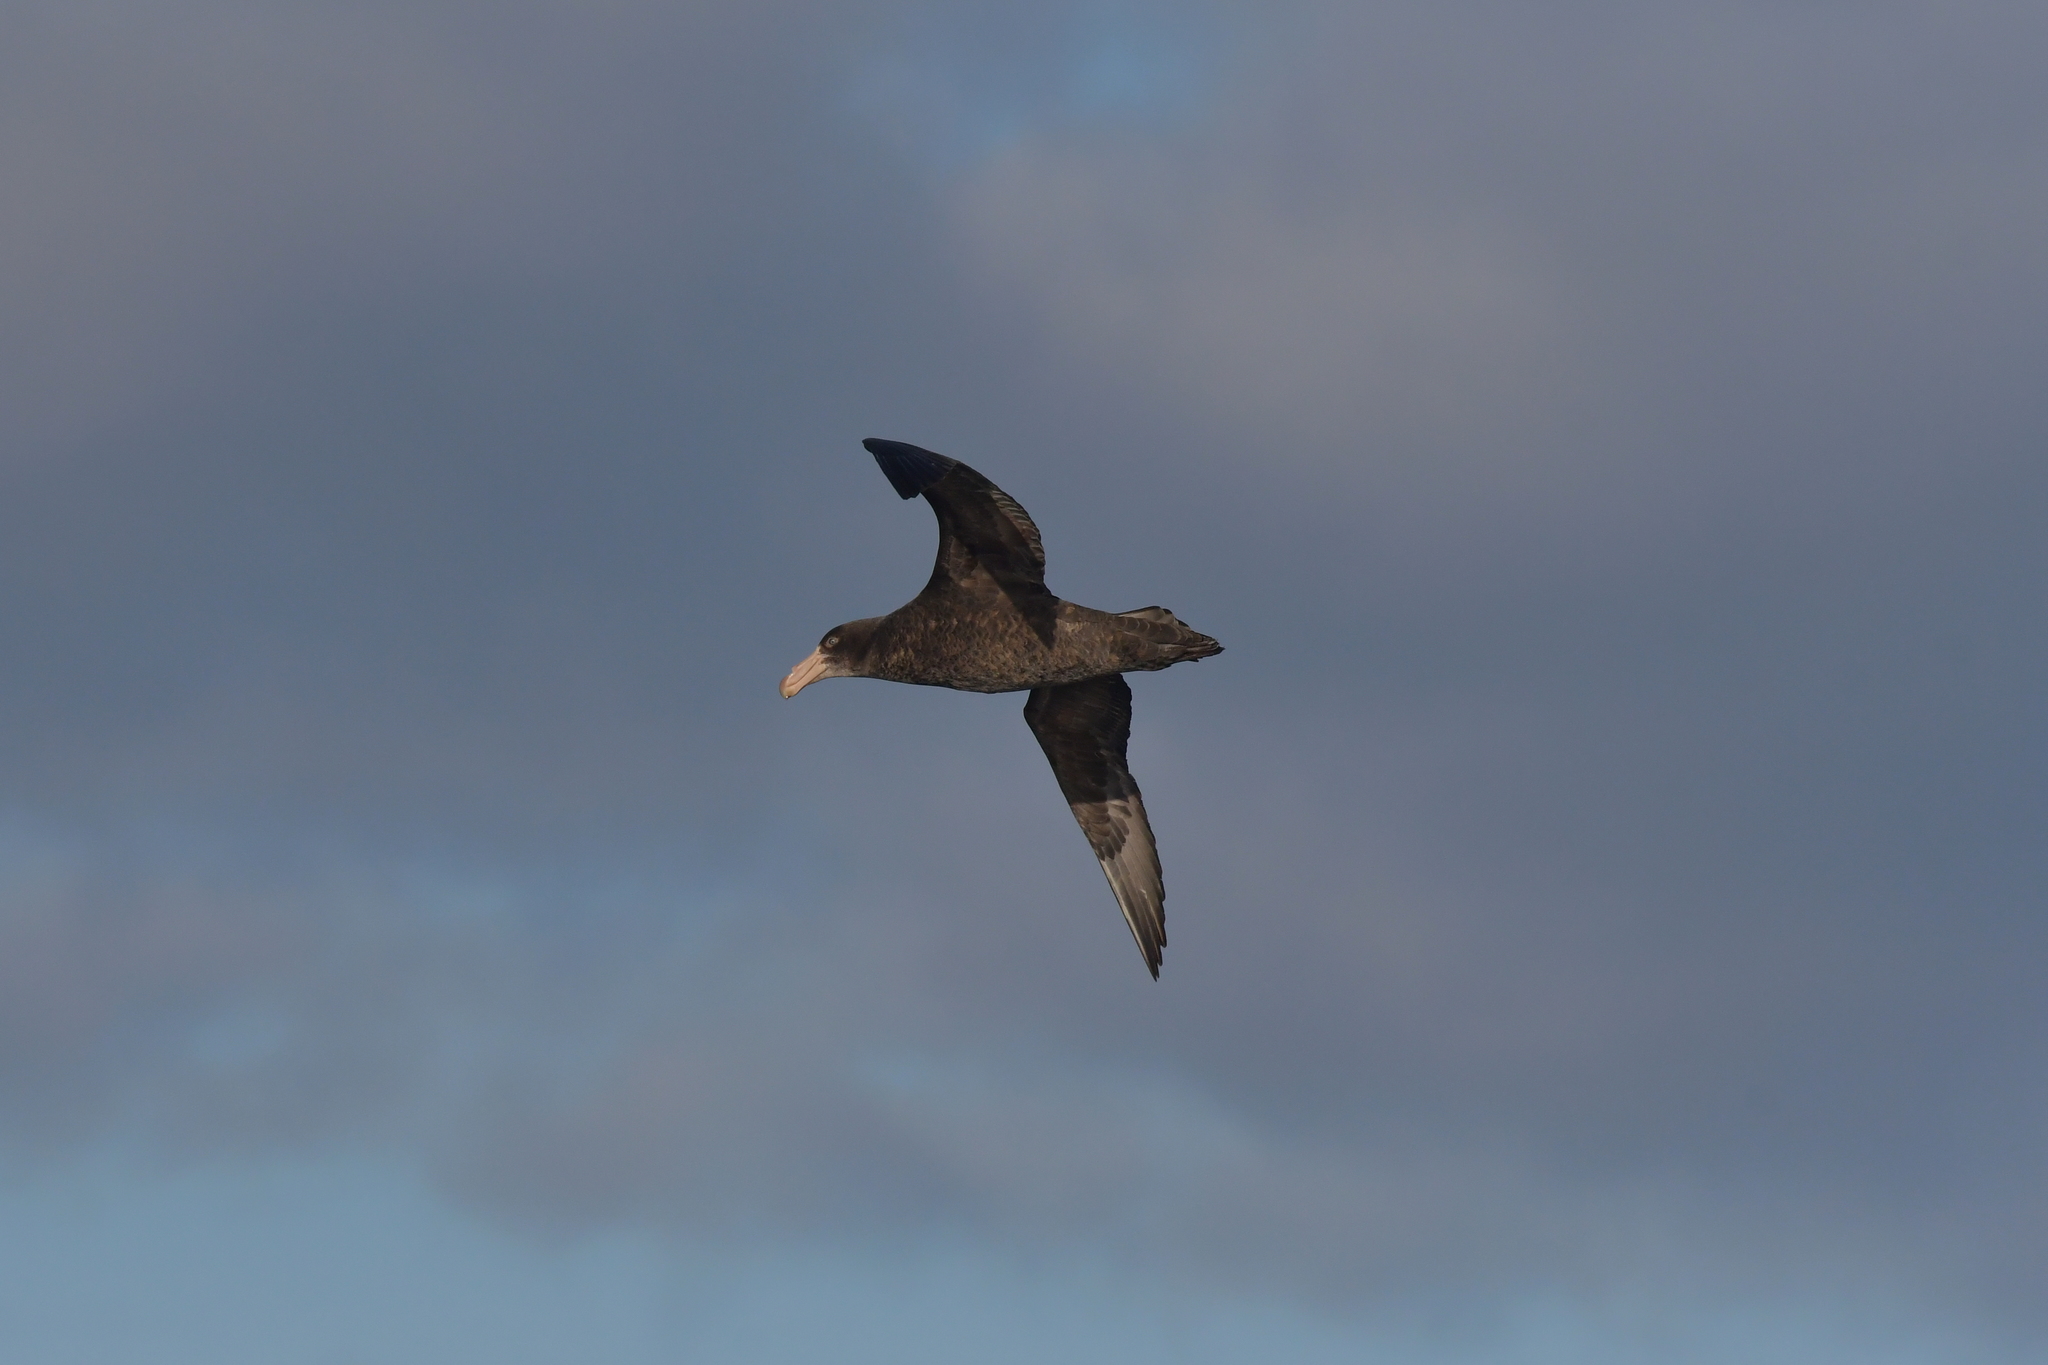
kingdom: Animalia
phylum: Chordata
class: Aves
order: Procellariiformes
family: Procellariidae
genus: Macronectes
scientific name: Macronectes halli
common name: Northern giant petrel
